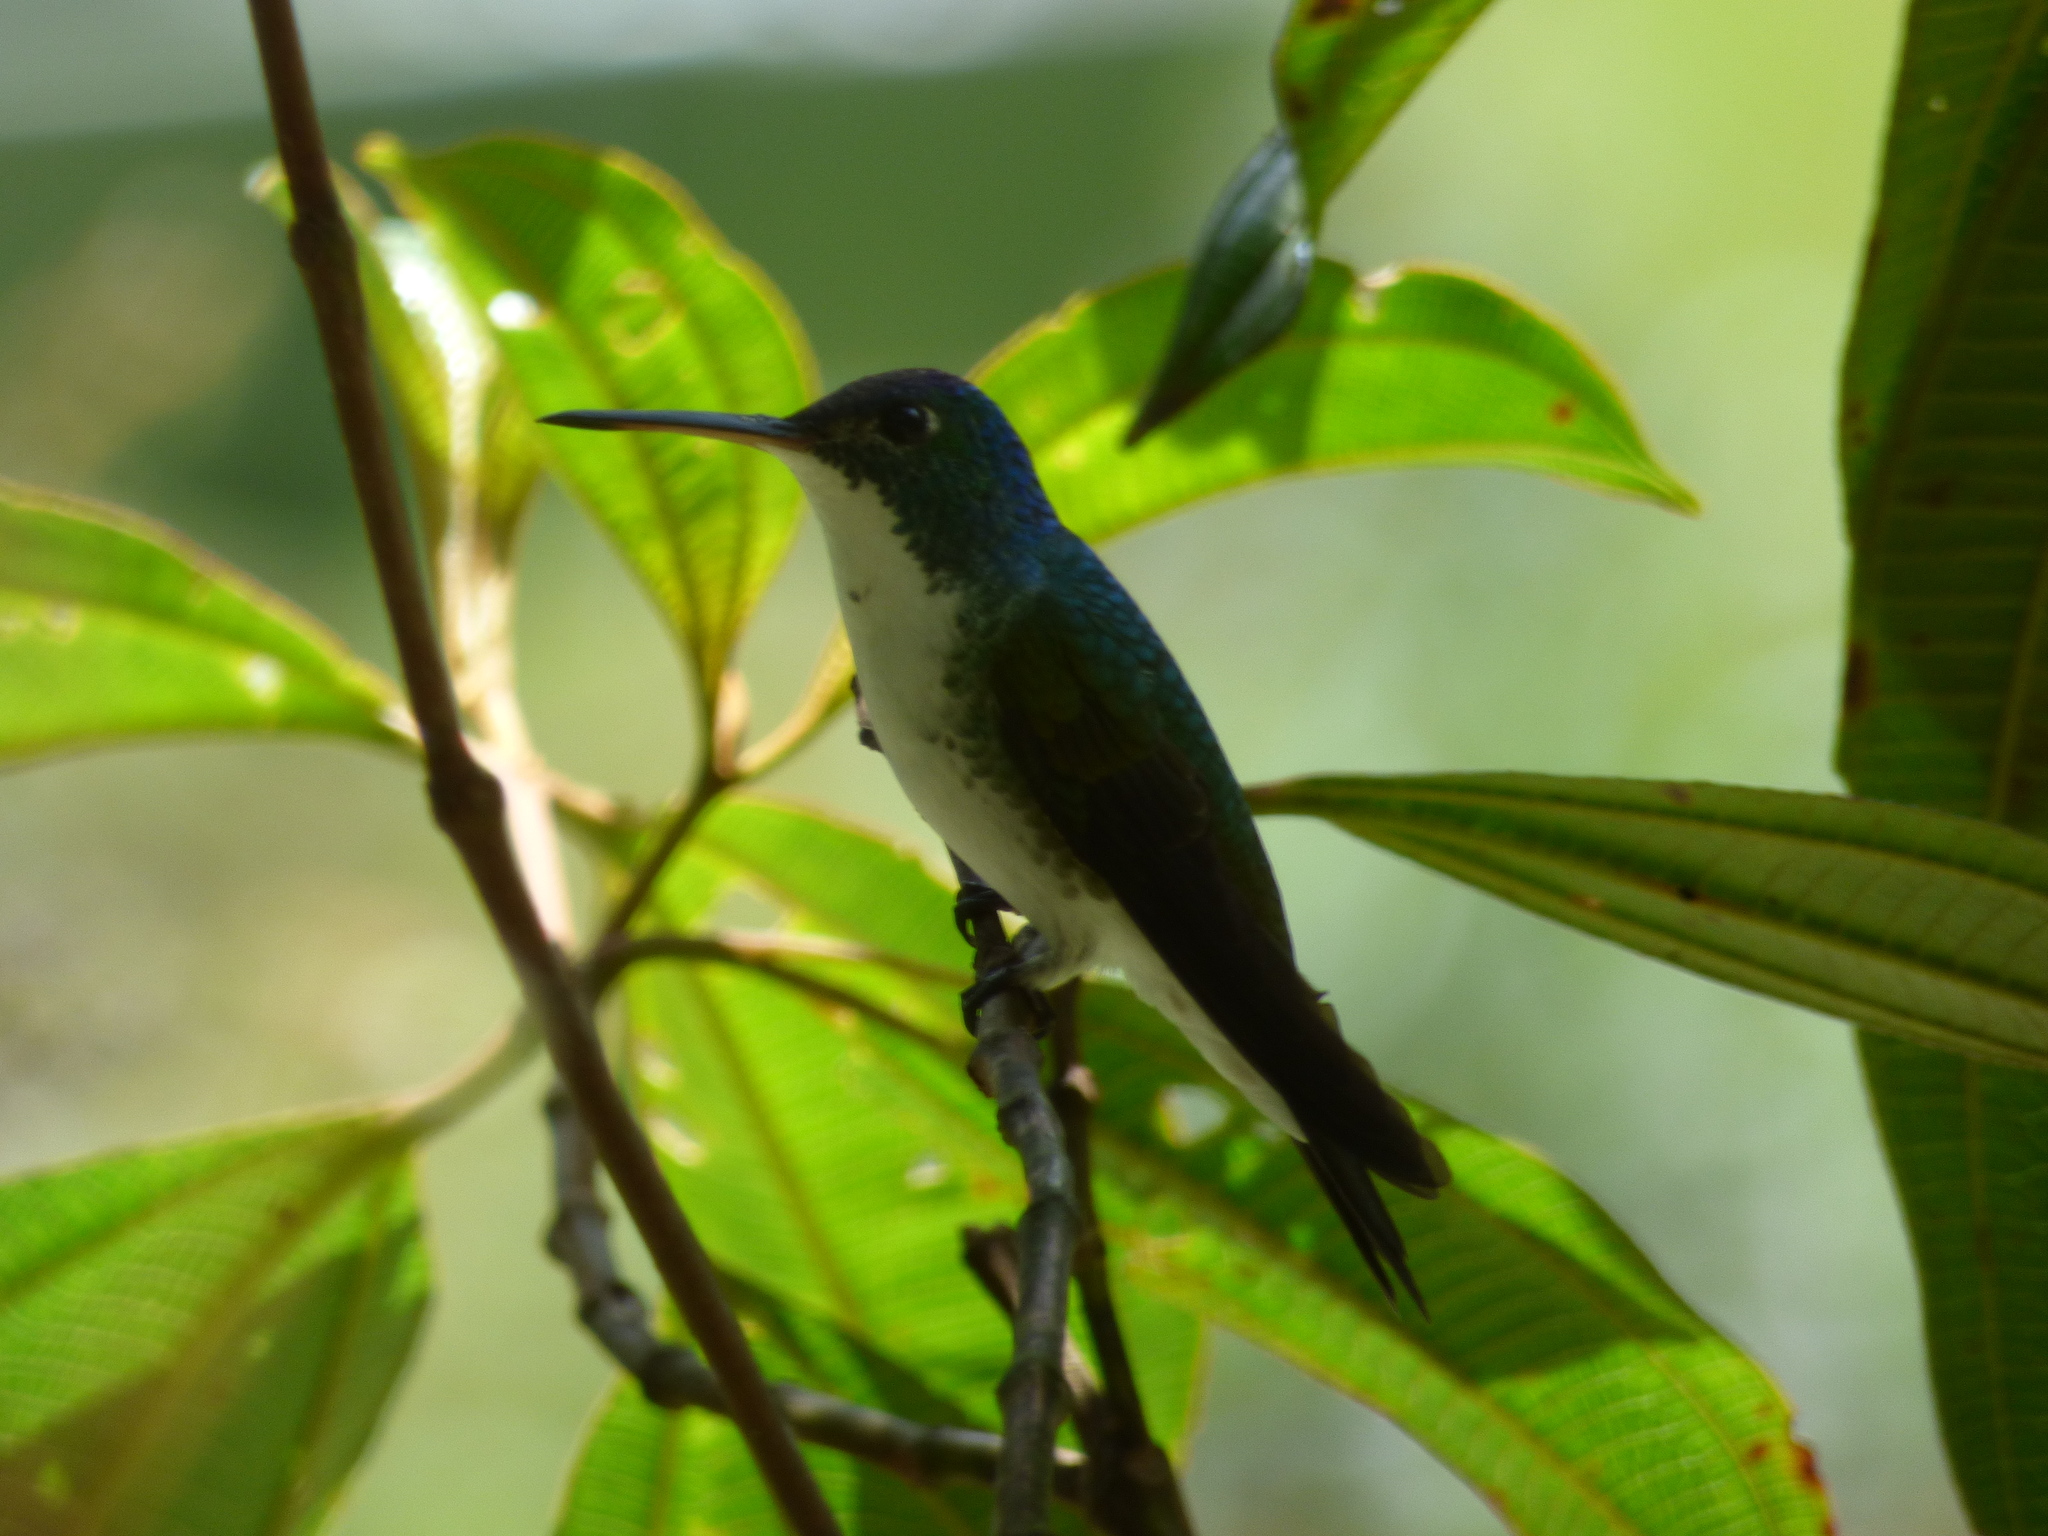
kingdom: Animalia
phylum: Chordata
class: Aves
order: Apodiformes
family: Trochilidae
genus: Uranomitra
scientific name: Uranomitra franciae
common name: Andean emerald
